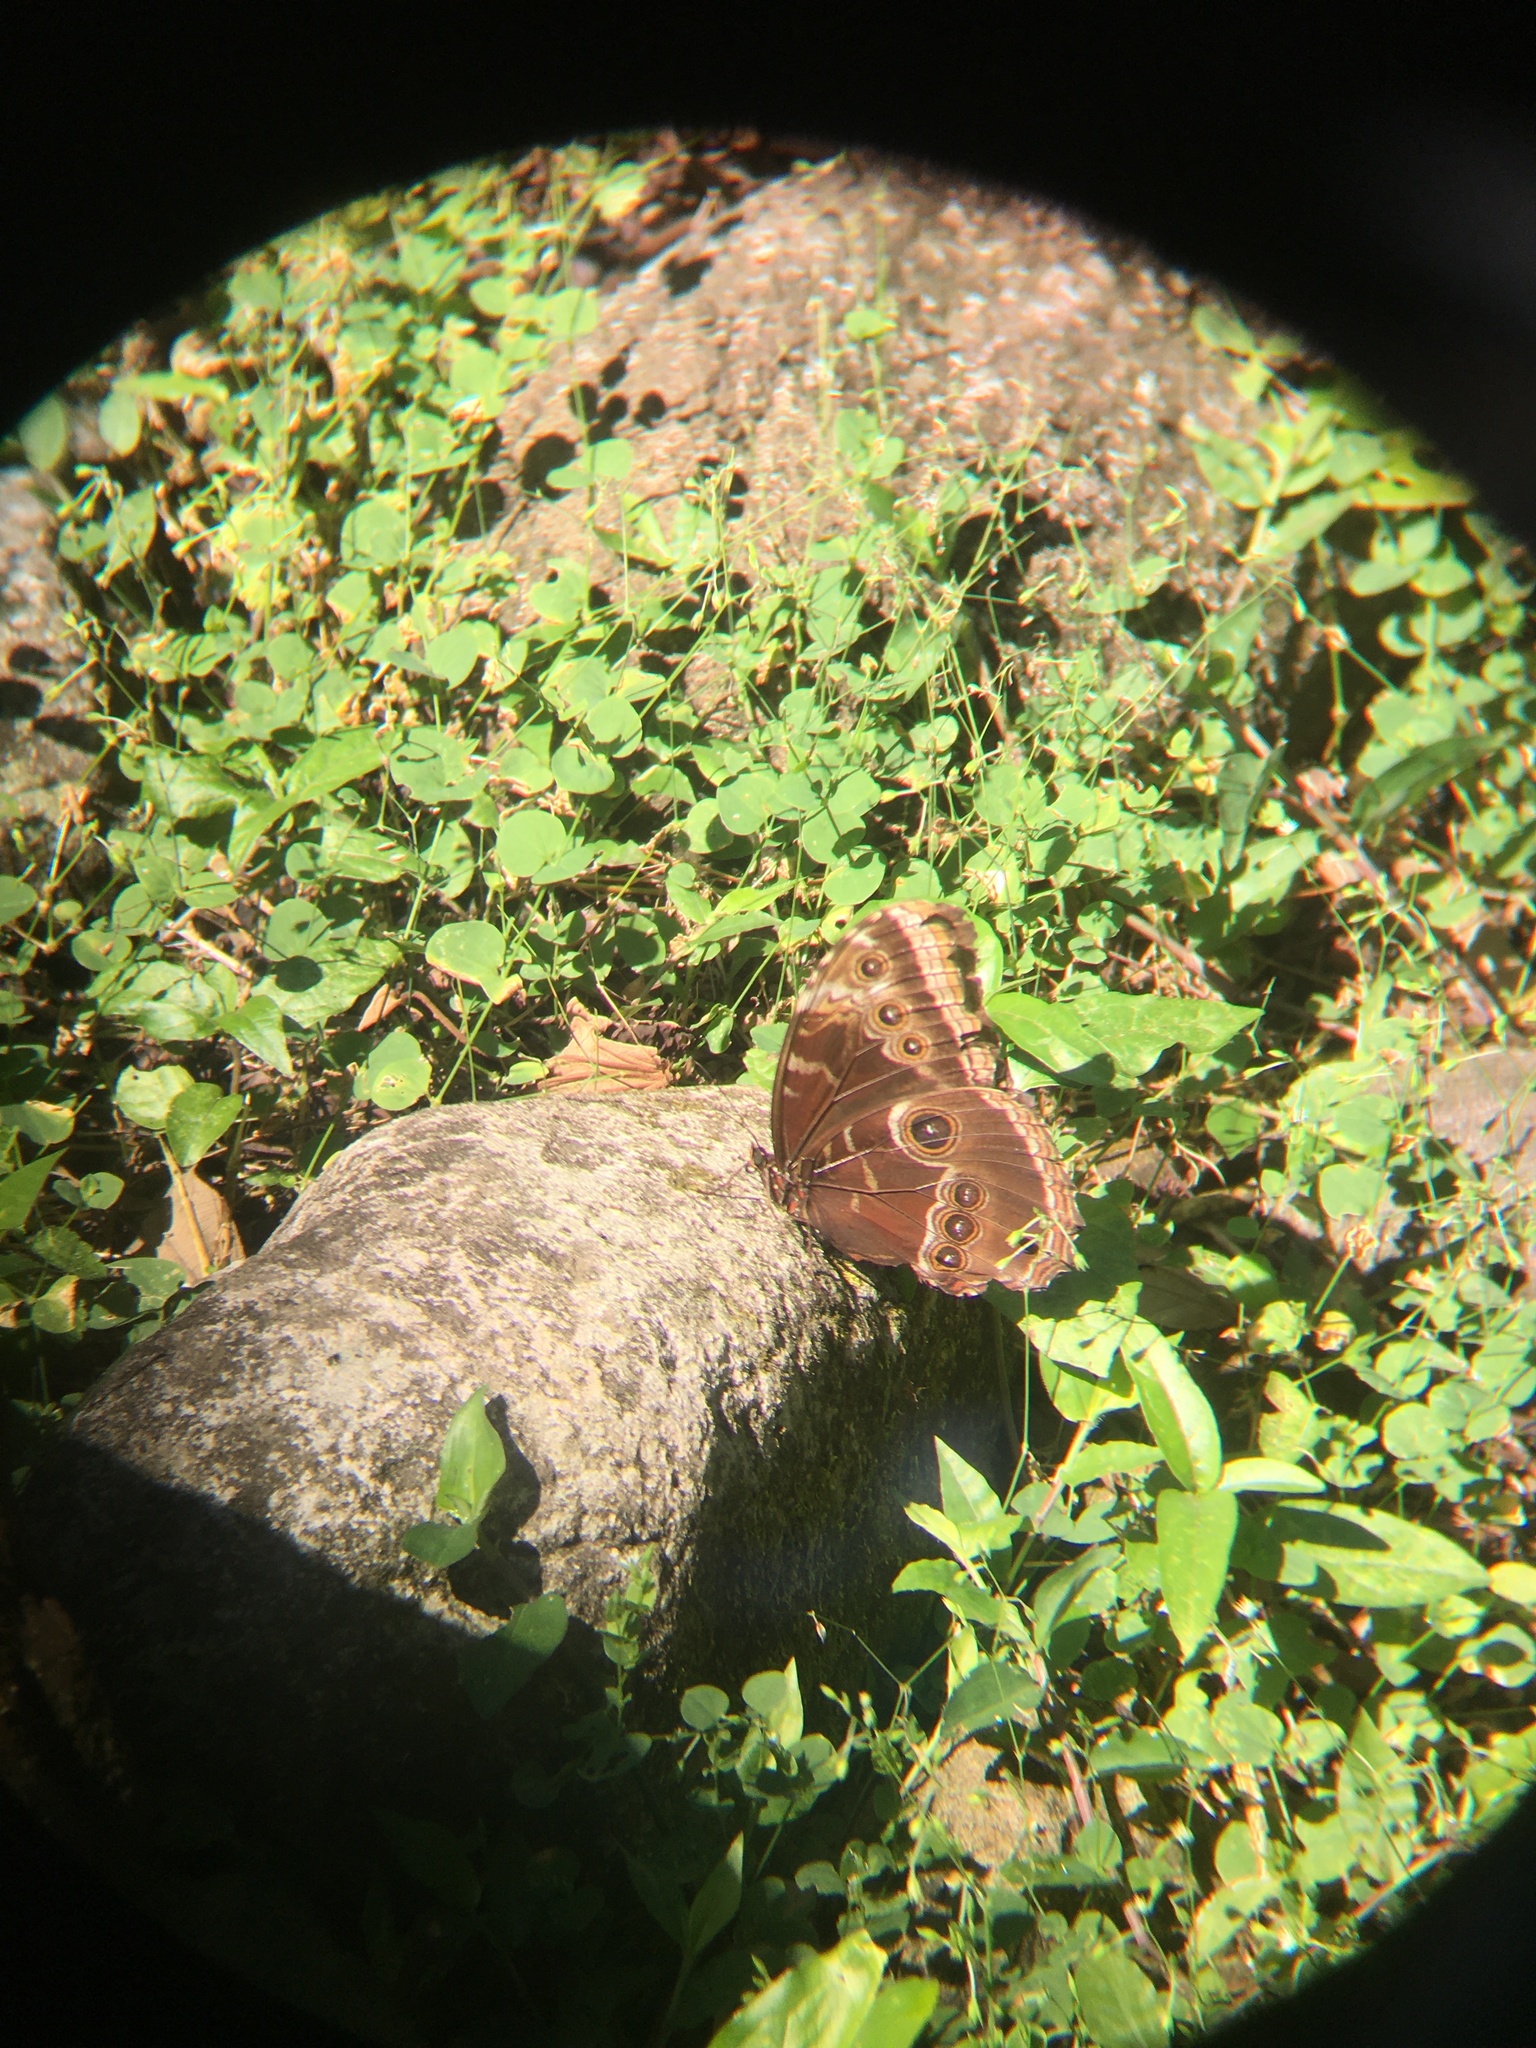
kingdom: Animalia
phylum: Arthropoda
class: Insecta
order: Lepidoptera
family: Nymphalidae
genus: Morpho
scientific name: Morpho helenor
